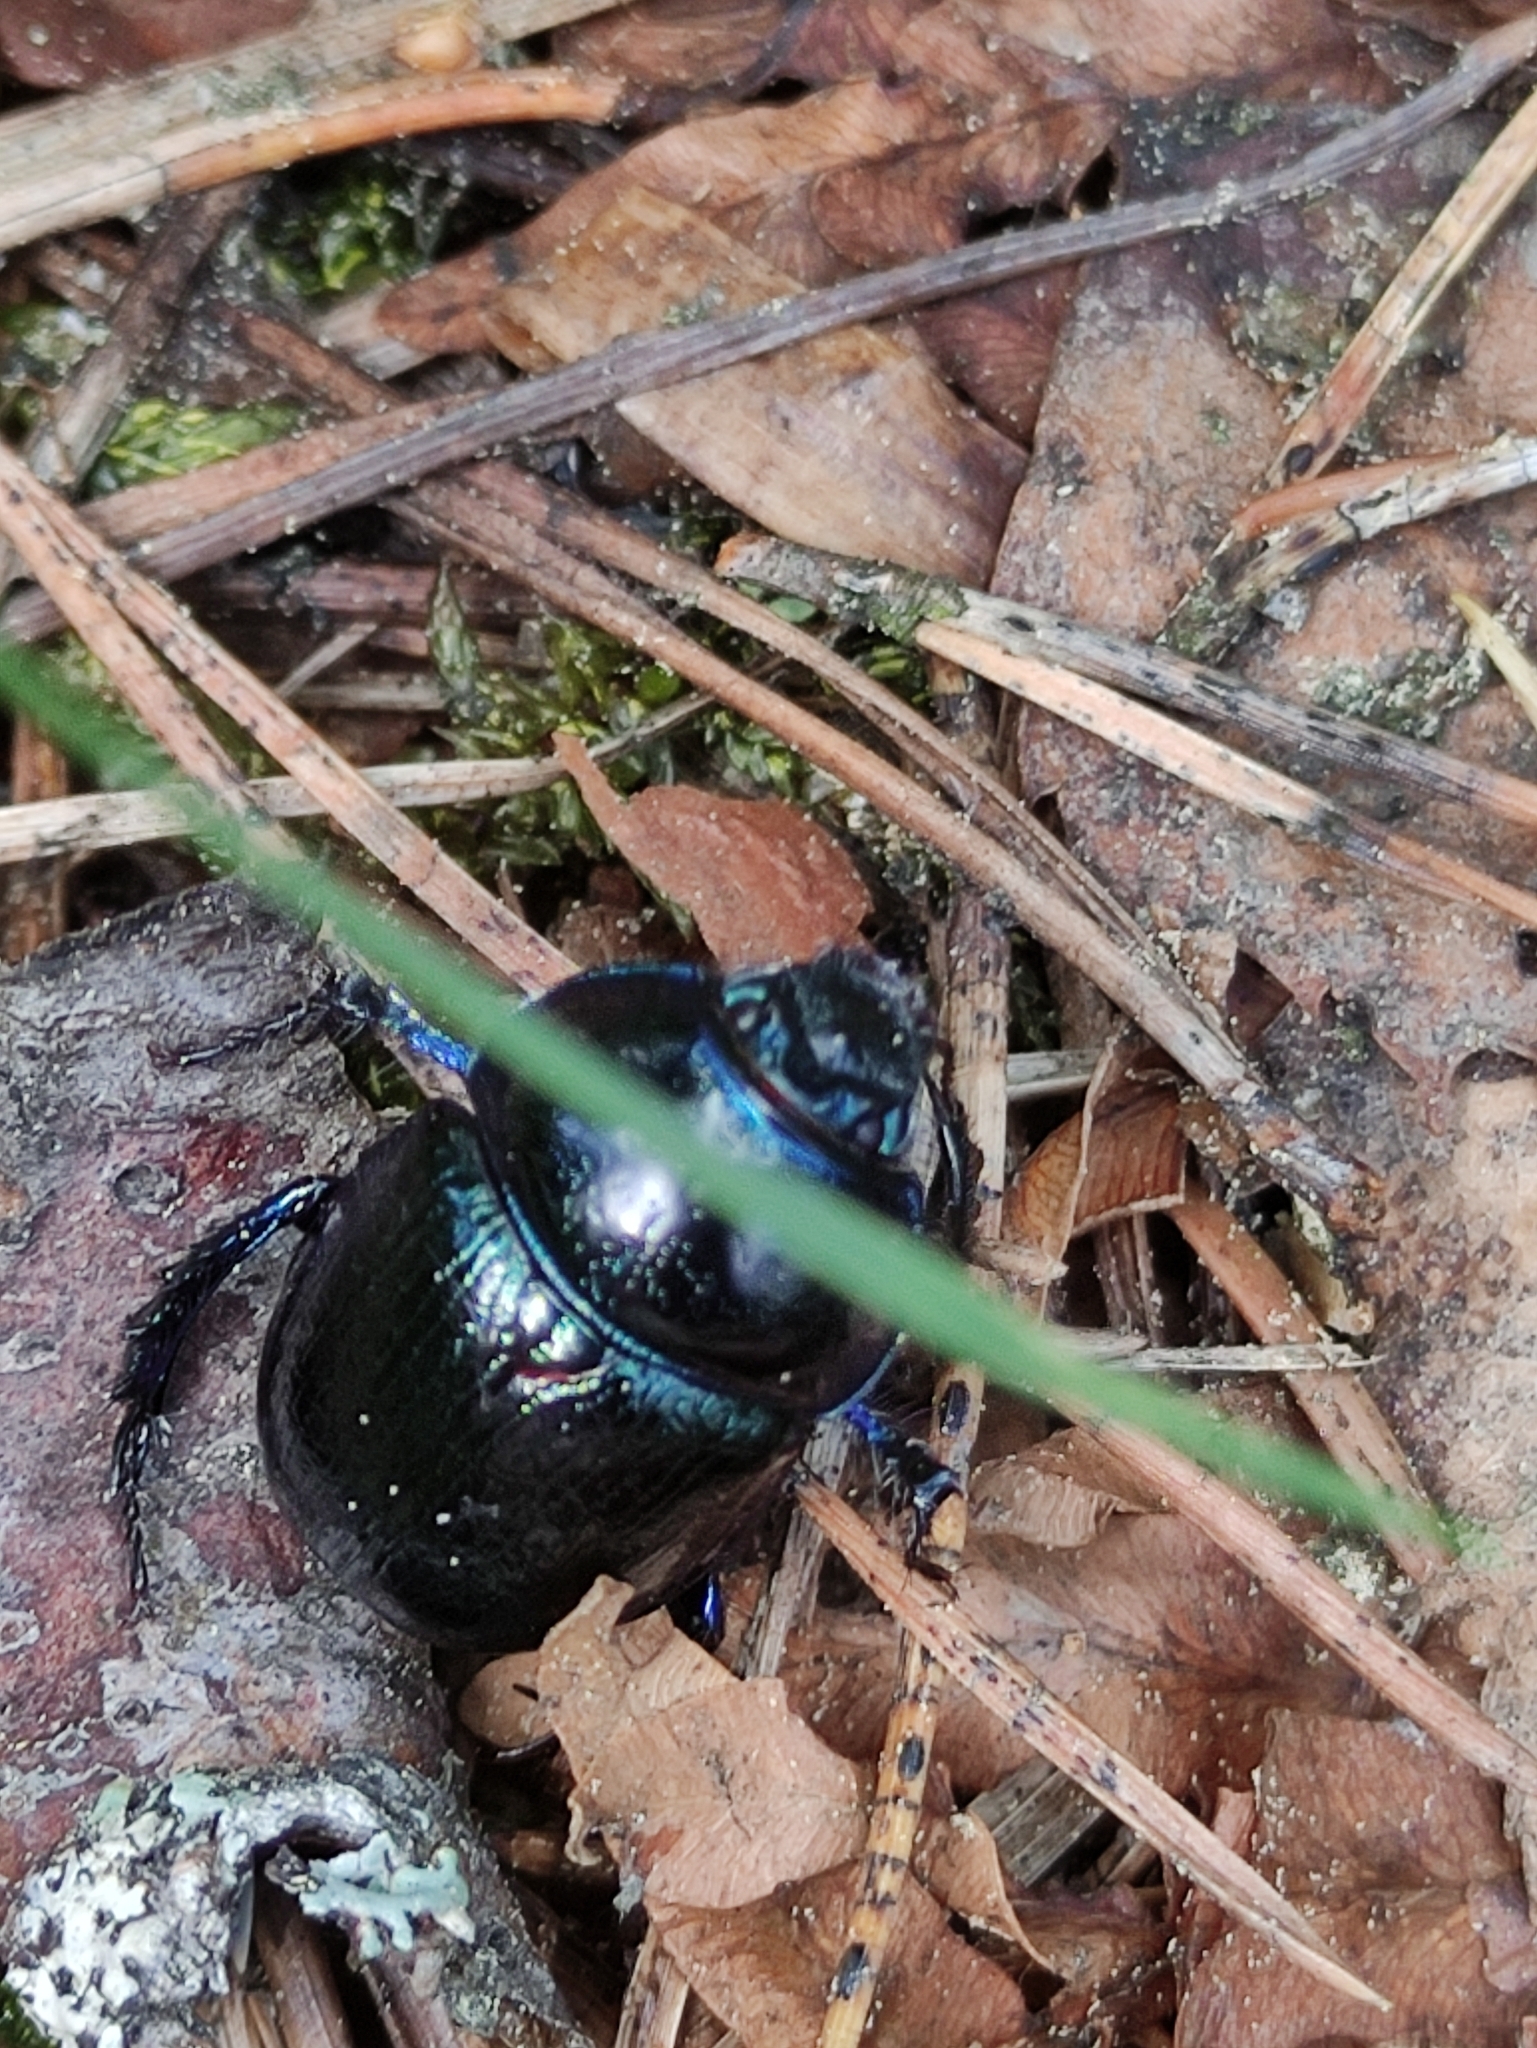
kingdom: Animalia
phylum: Arthropoda
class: Insecta
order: Coleoptera
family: Geotrupidae
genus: Anoplotrupes
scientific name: Anoplotrupes stercorosus
